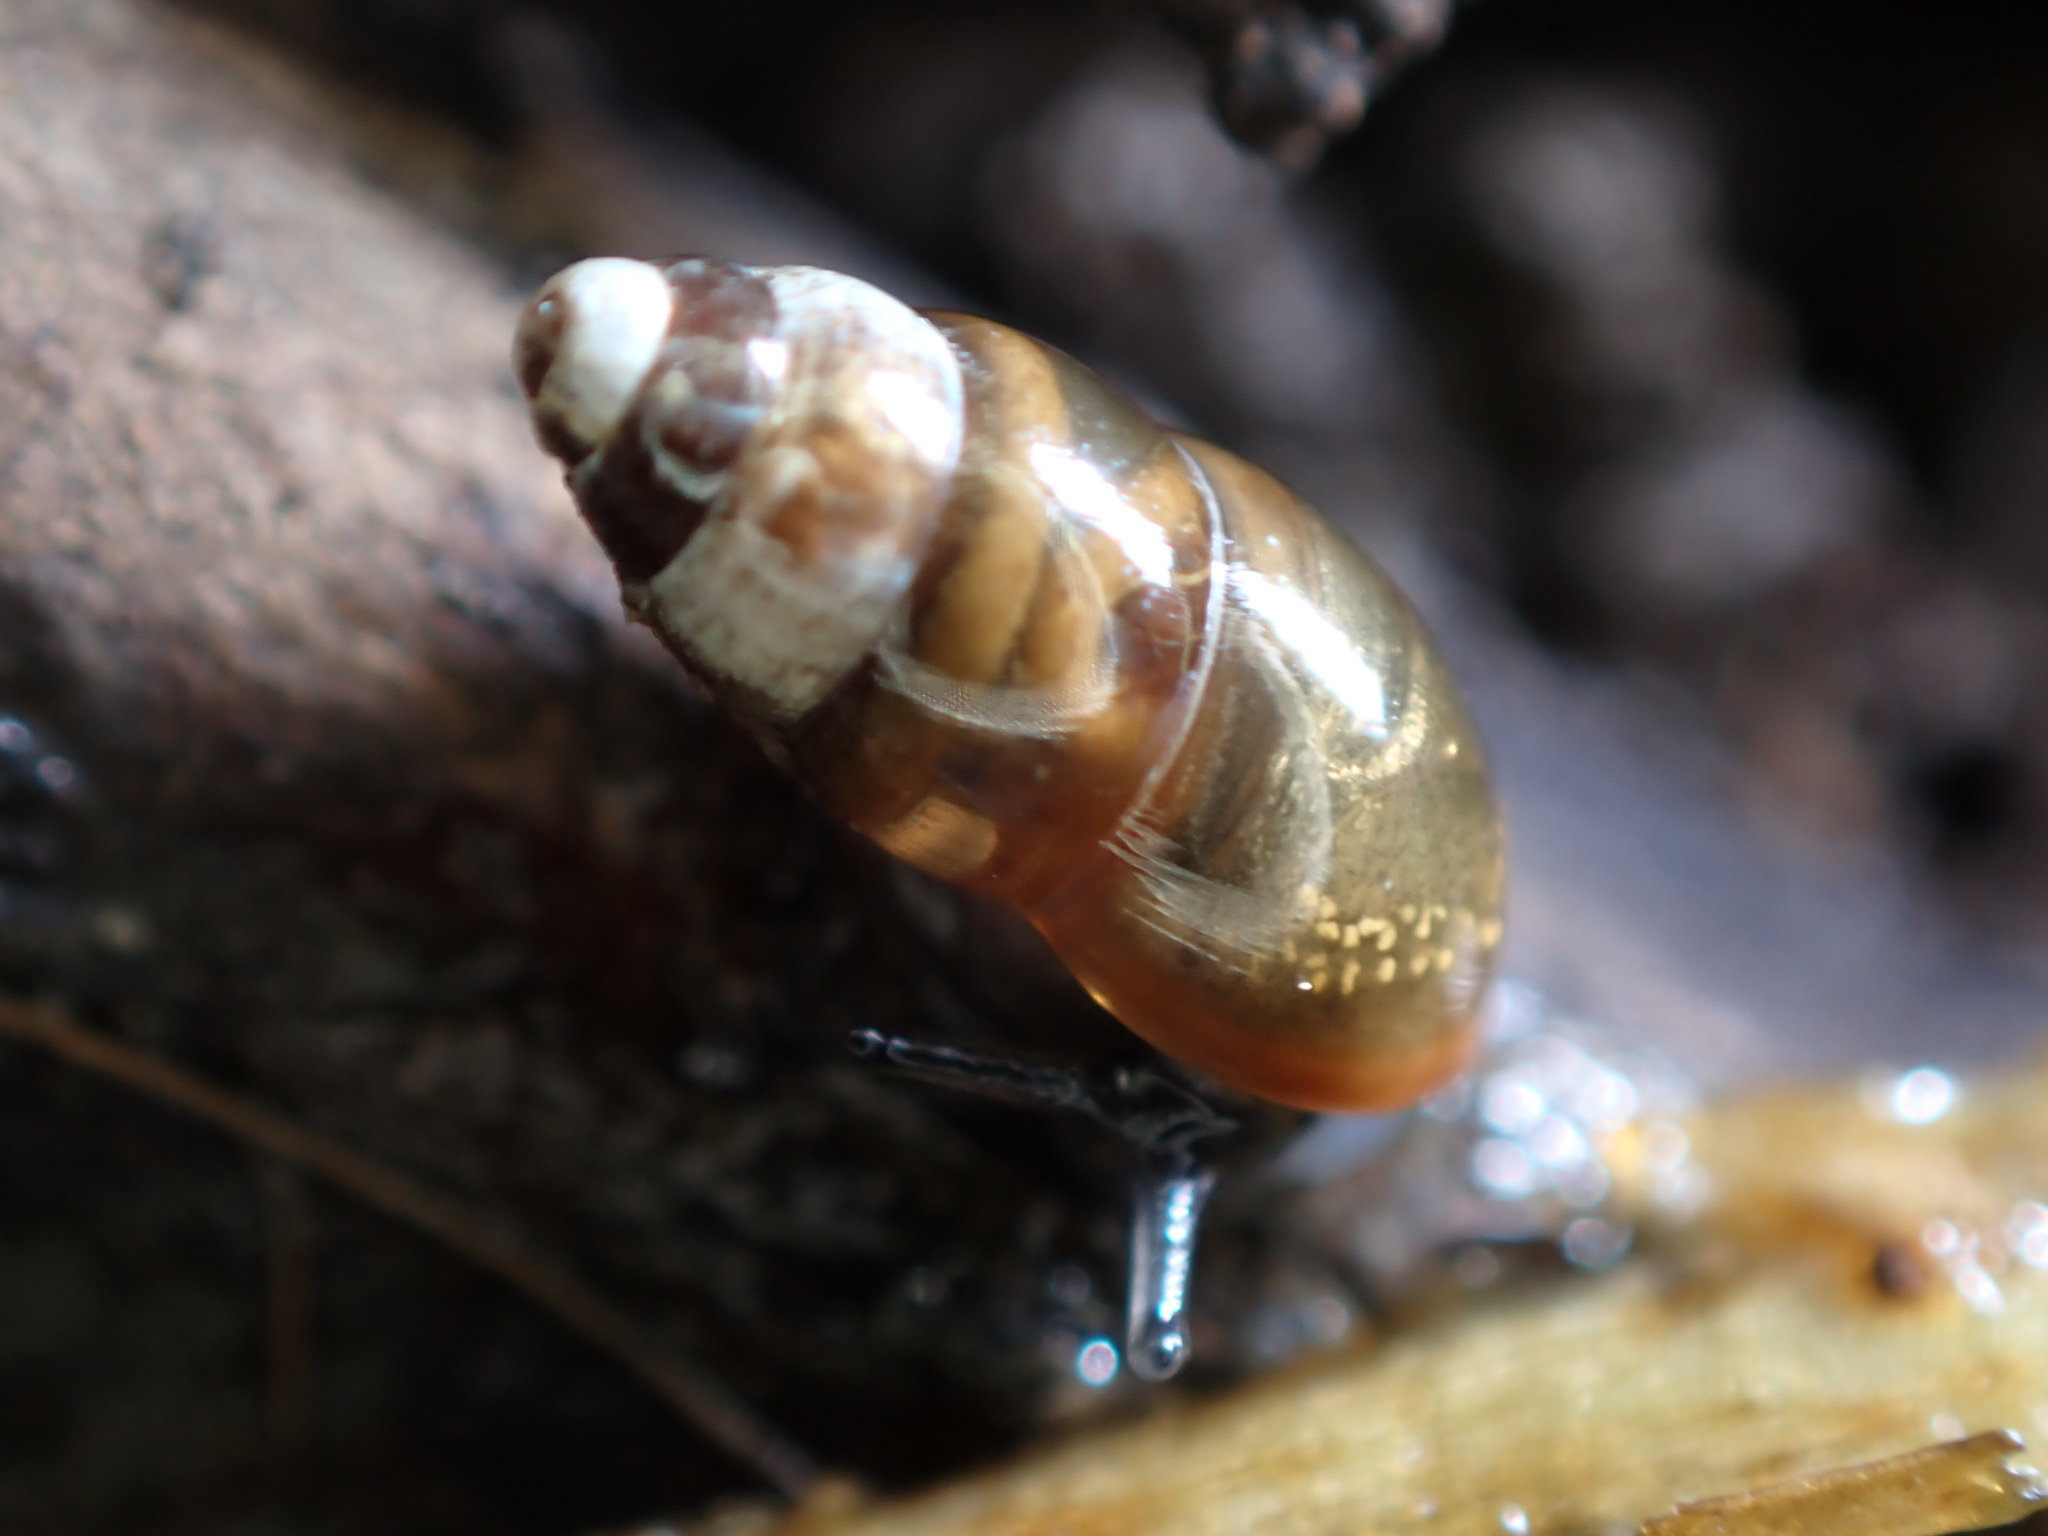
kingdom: Animalia
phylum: Mollusca
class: Gastropoda
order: Stylommatophora
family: Cochlicopidae
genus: Cochlicopa
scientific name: Cochlicopa lubrica
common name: Glossy pillar snail
